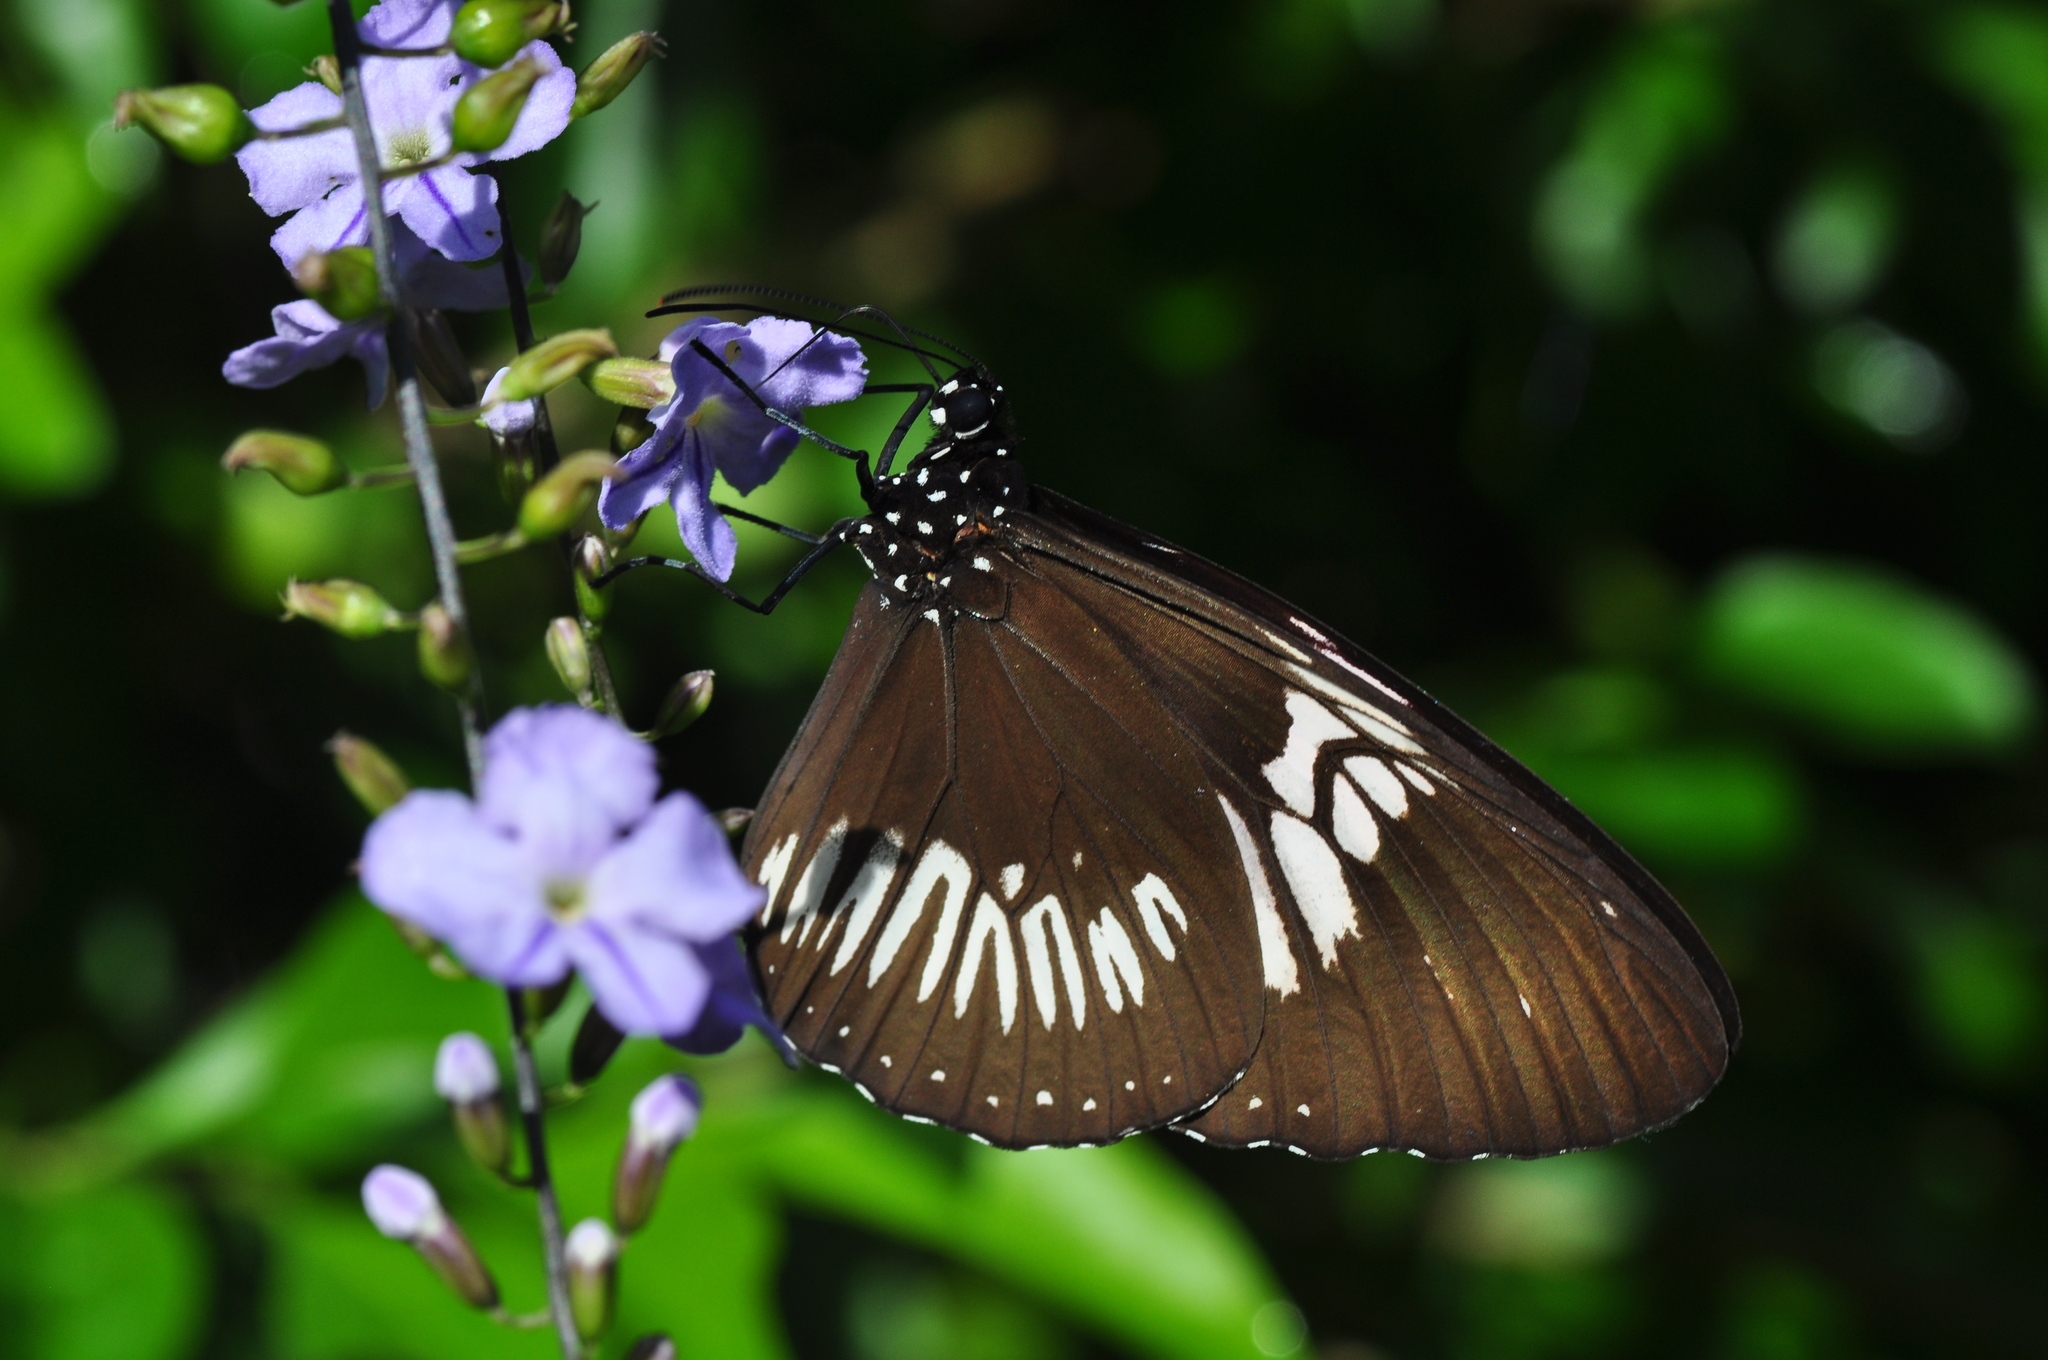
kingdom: Animalia
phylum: Arthropoda
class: Insecta
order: Lepidoptera
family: Nymphalidae
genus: Euploea
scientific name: Euploea eupator
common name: Sulawesi pied crow
